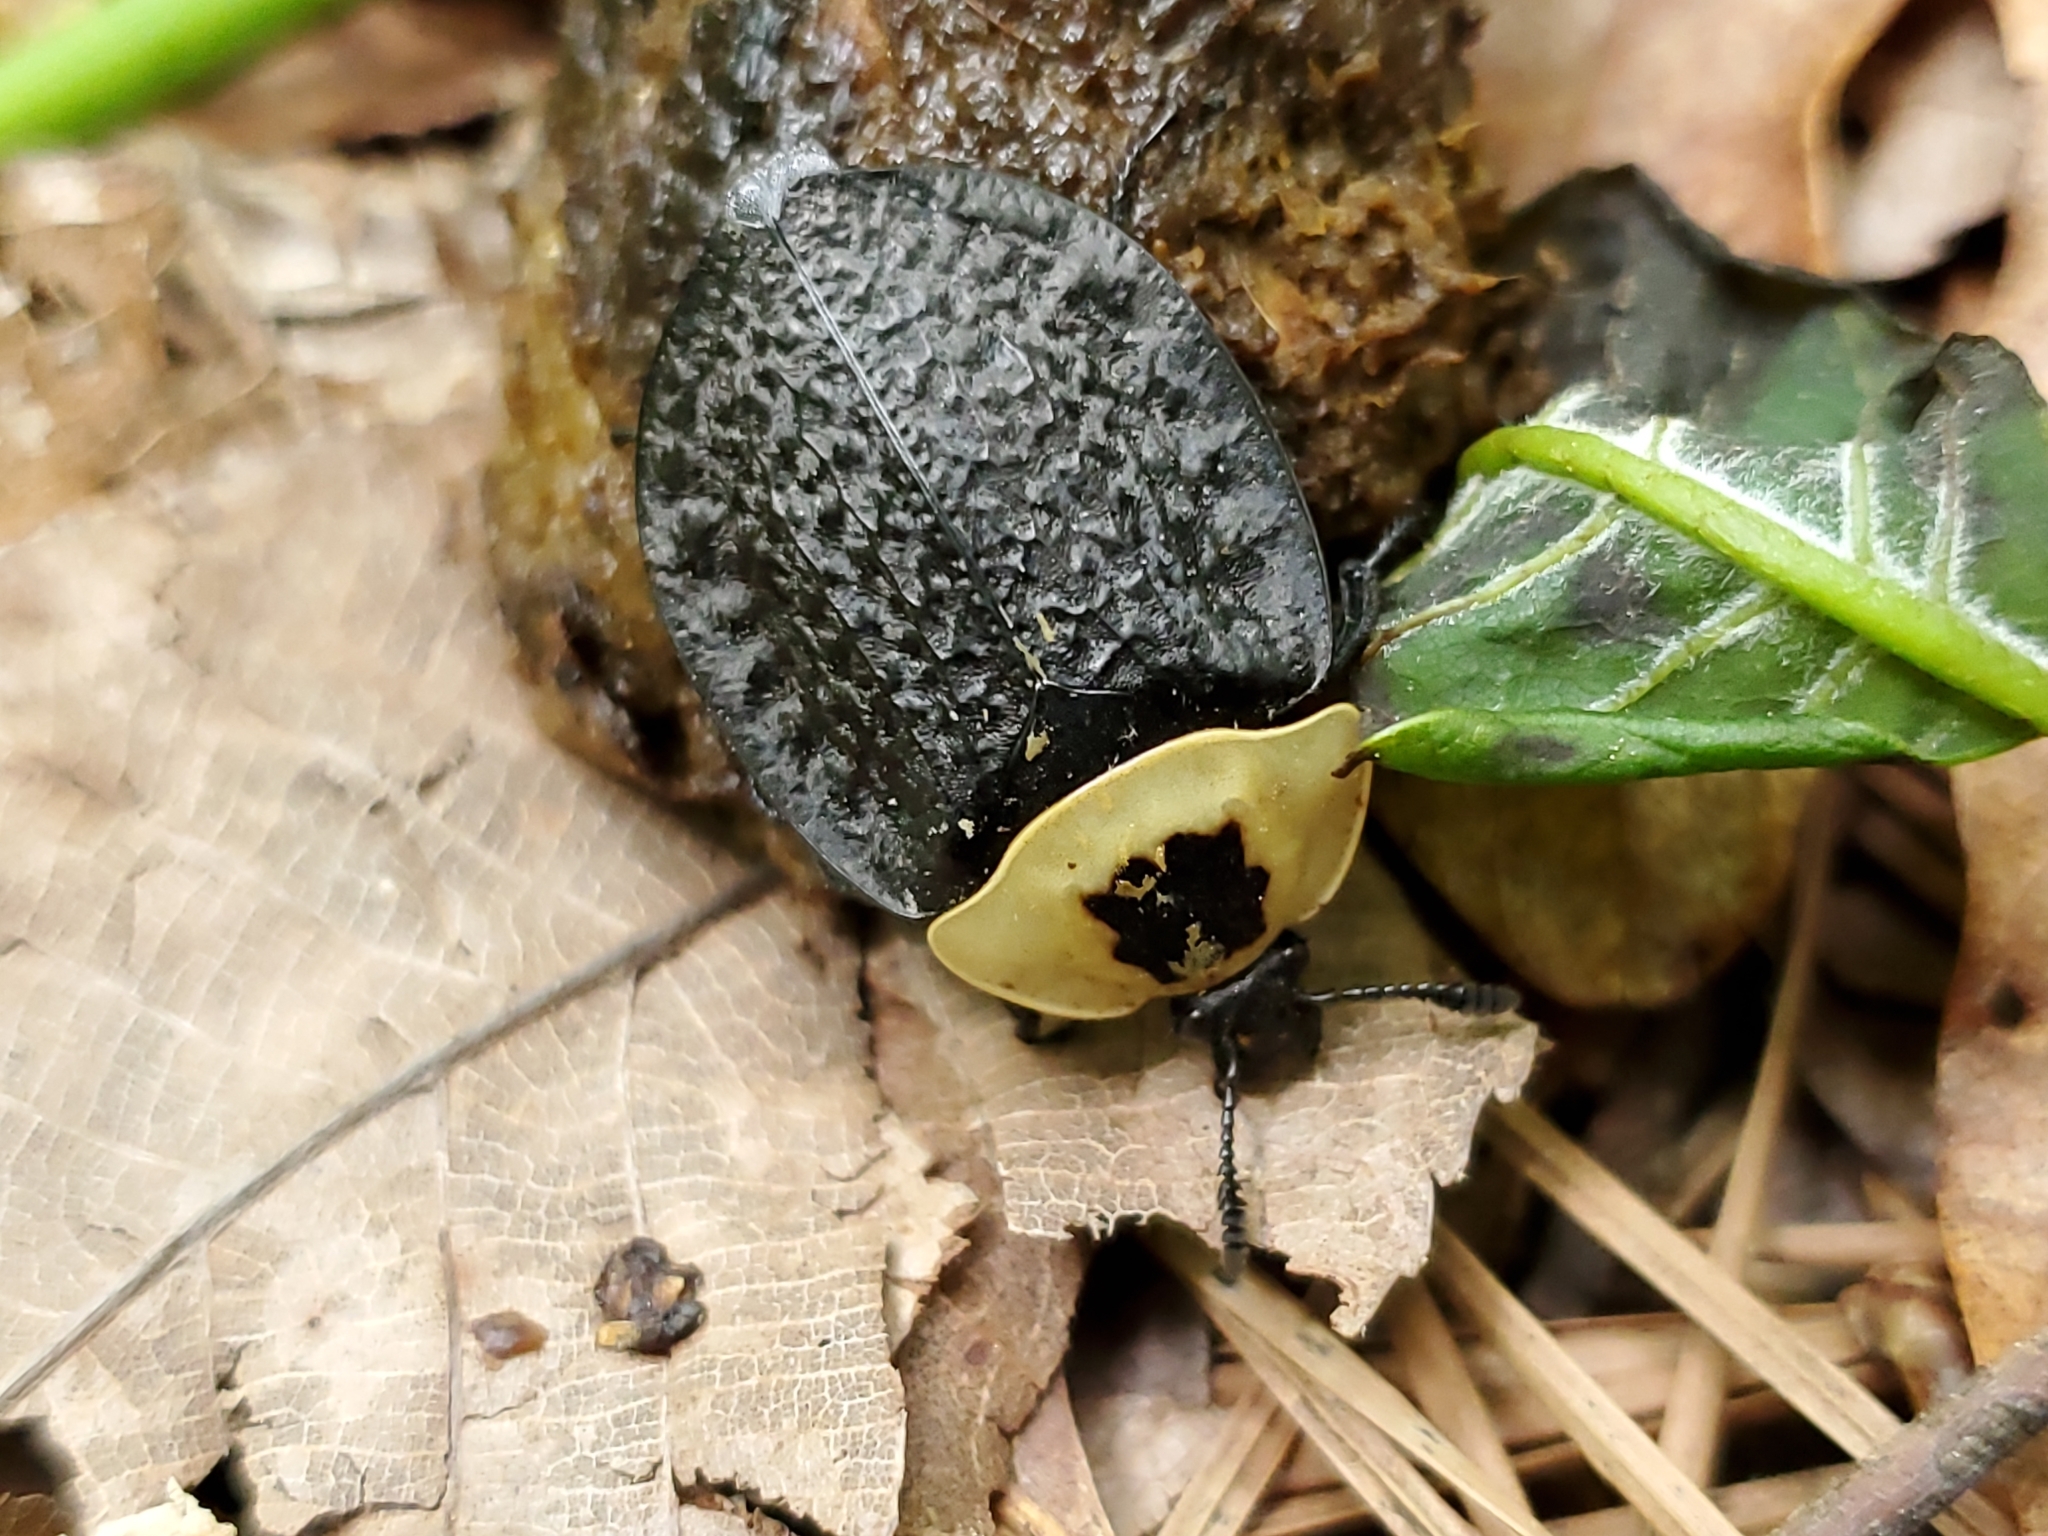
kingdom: Animalia
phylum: Arthropoda
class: Insecta
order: Coleoptera
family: Staphylinidae
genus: Necrophila
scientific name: Necrophila americana
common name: American carrion beetle
